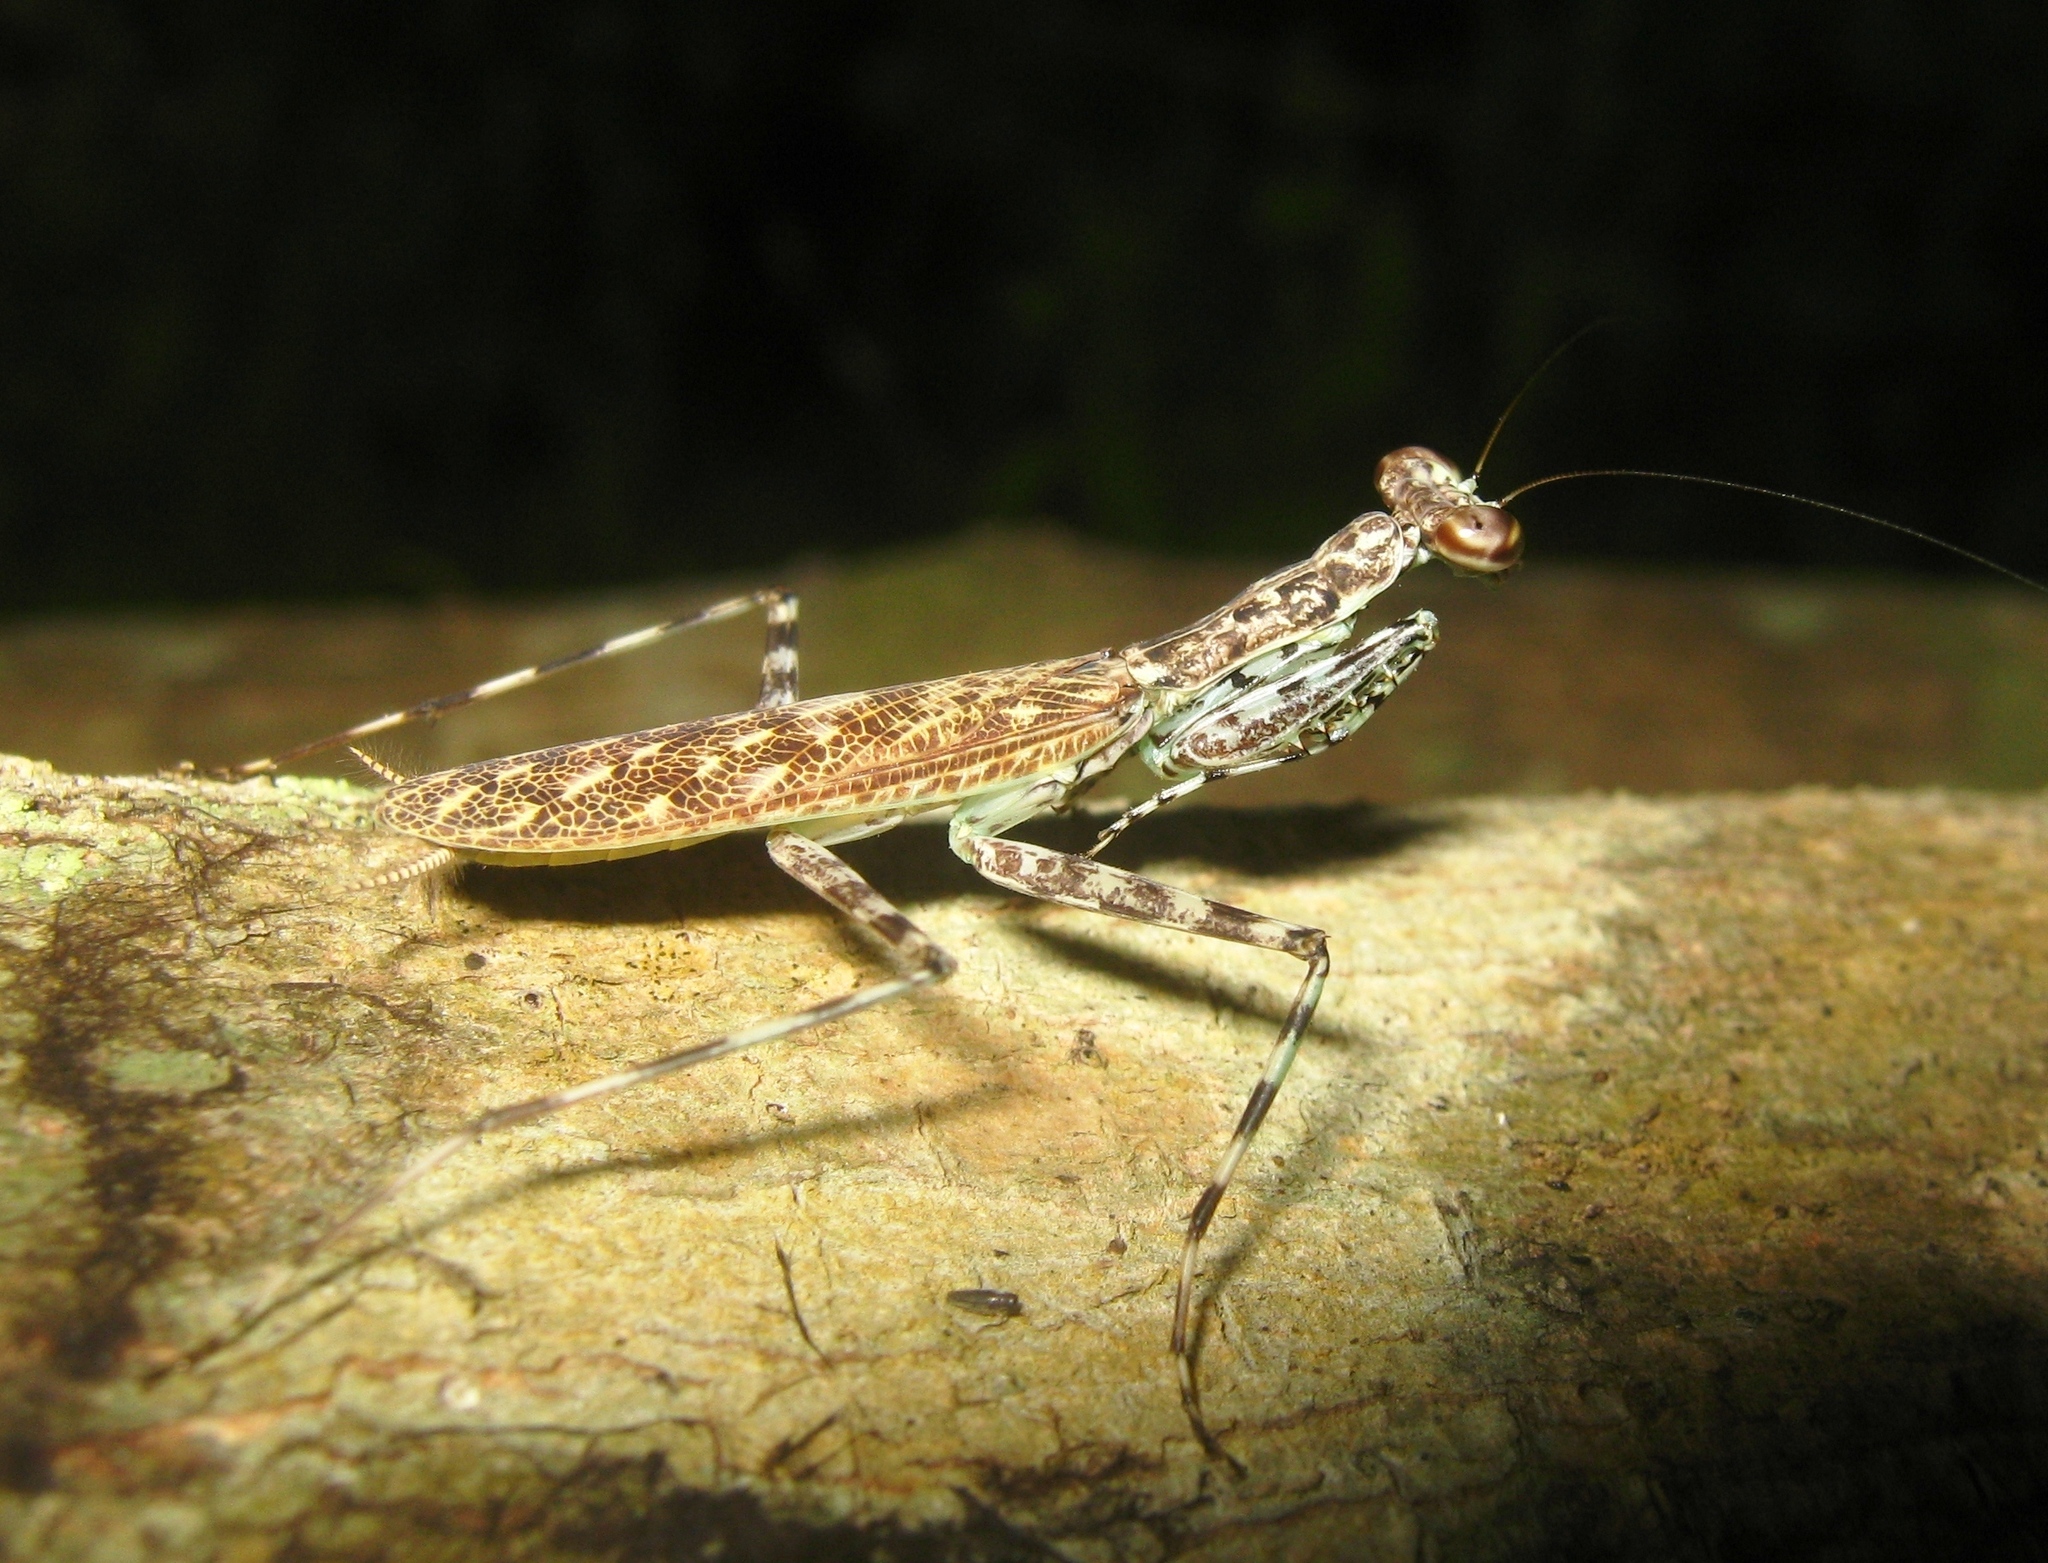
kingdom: Animalia
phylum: Arthropoda
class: Insecta
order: Mantodea
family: Liturgusidae
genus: Liturgusa
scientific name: Liturgusa cayennensis
